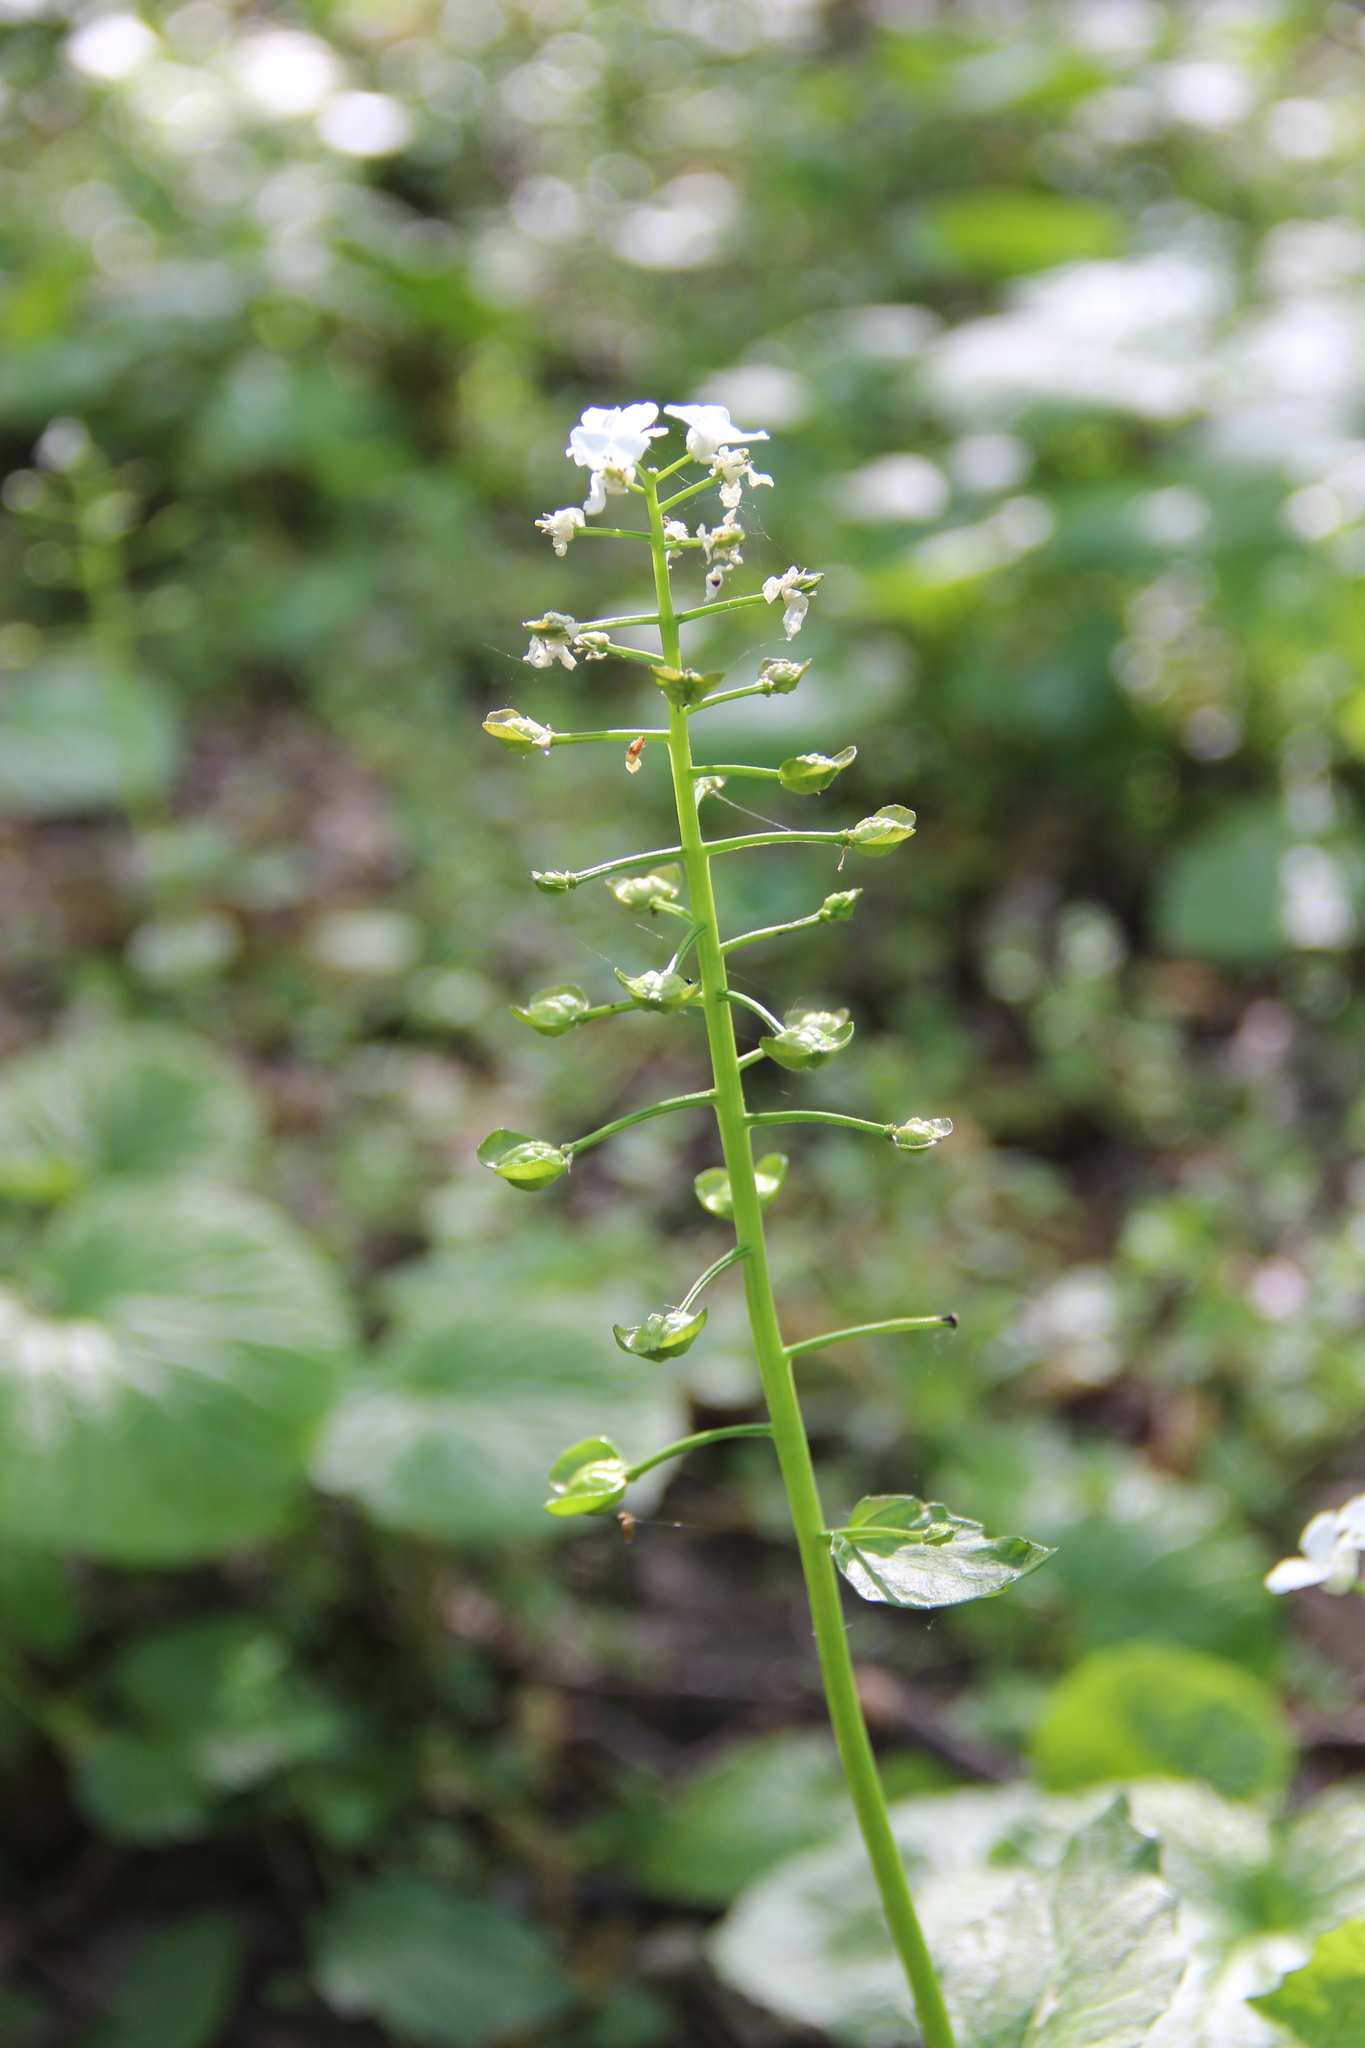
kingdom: Plantae
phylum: Tracheophyta
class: Magnoliopsida
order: Brassicales
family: Brassicaceae
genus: Pachyphragma
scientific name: Pachyphragma macrophyllum
